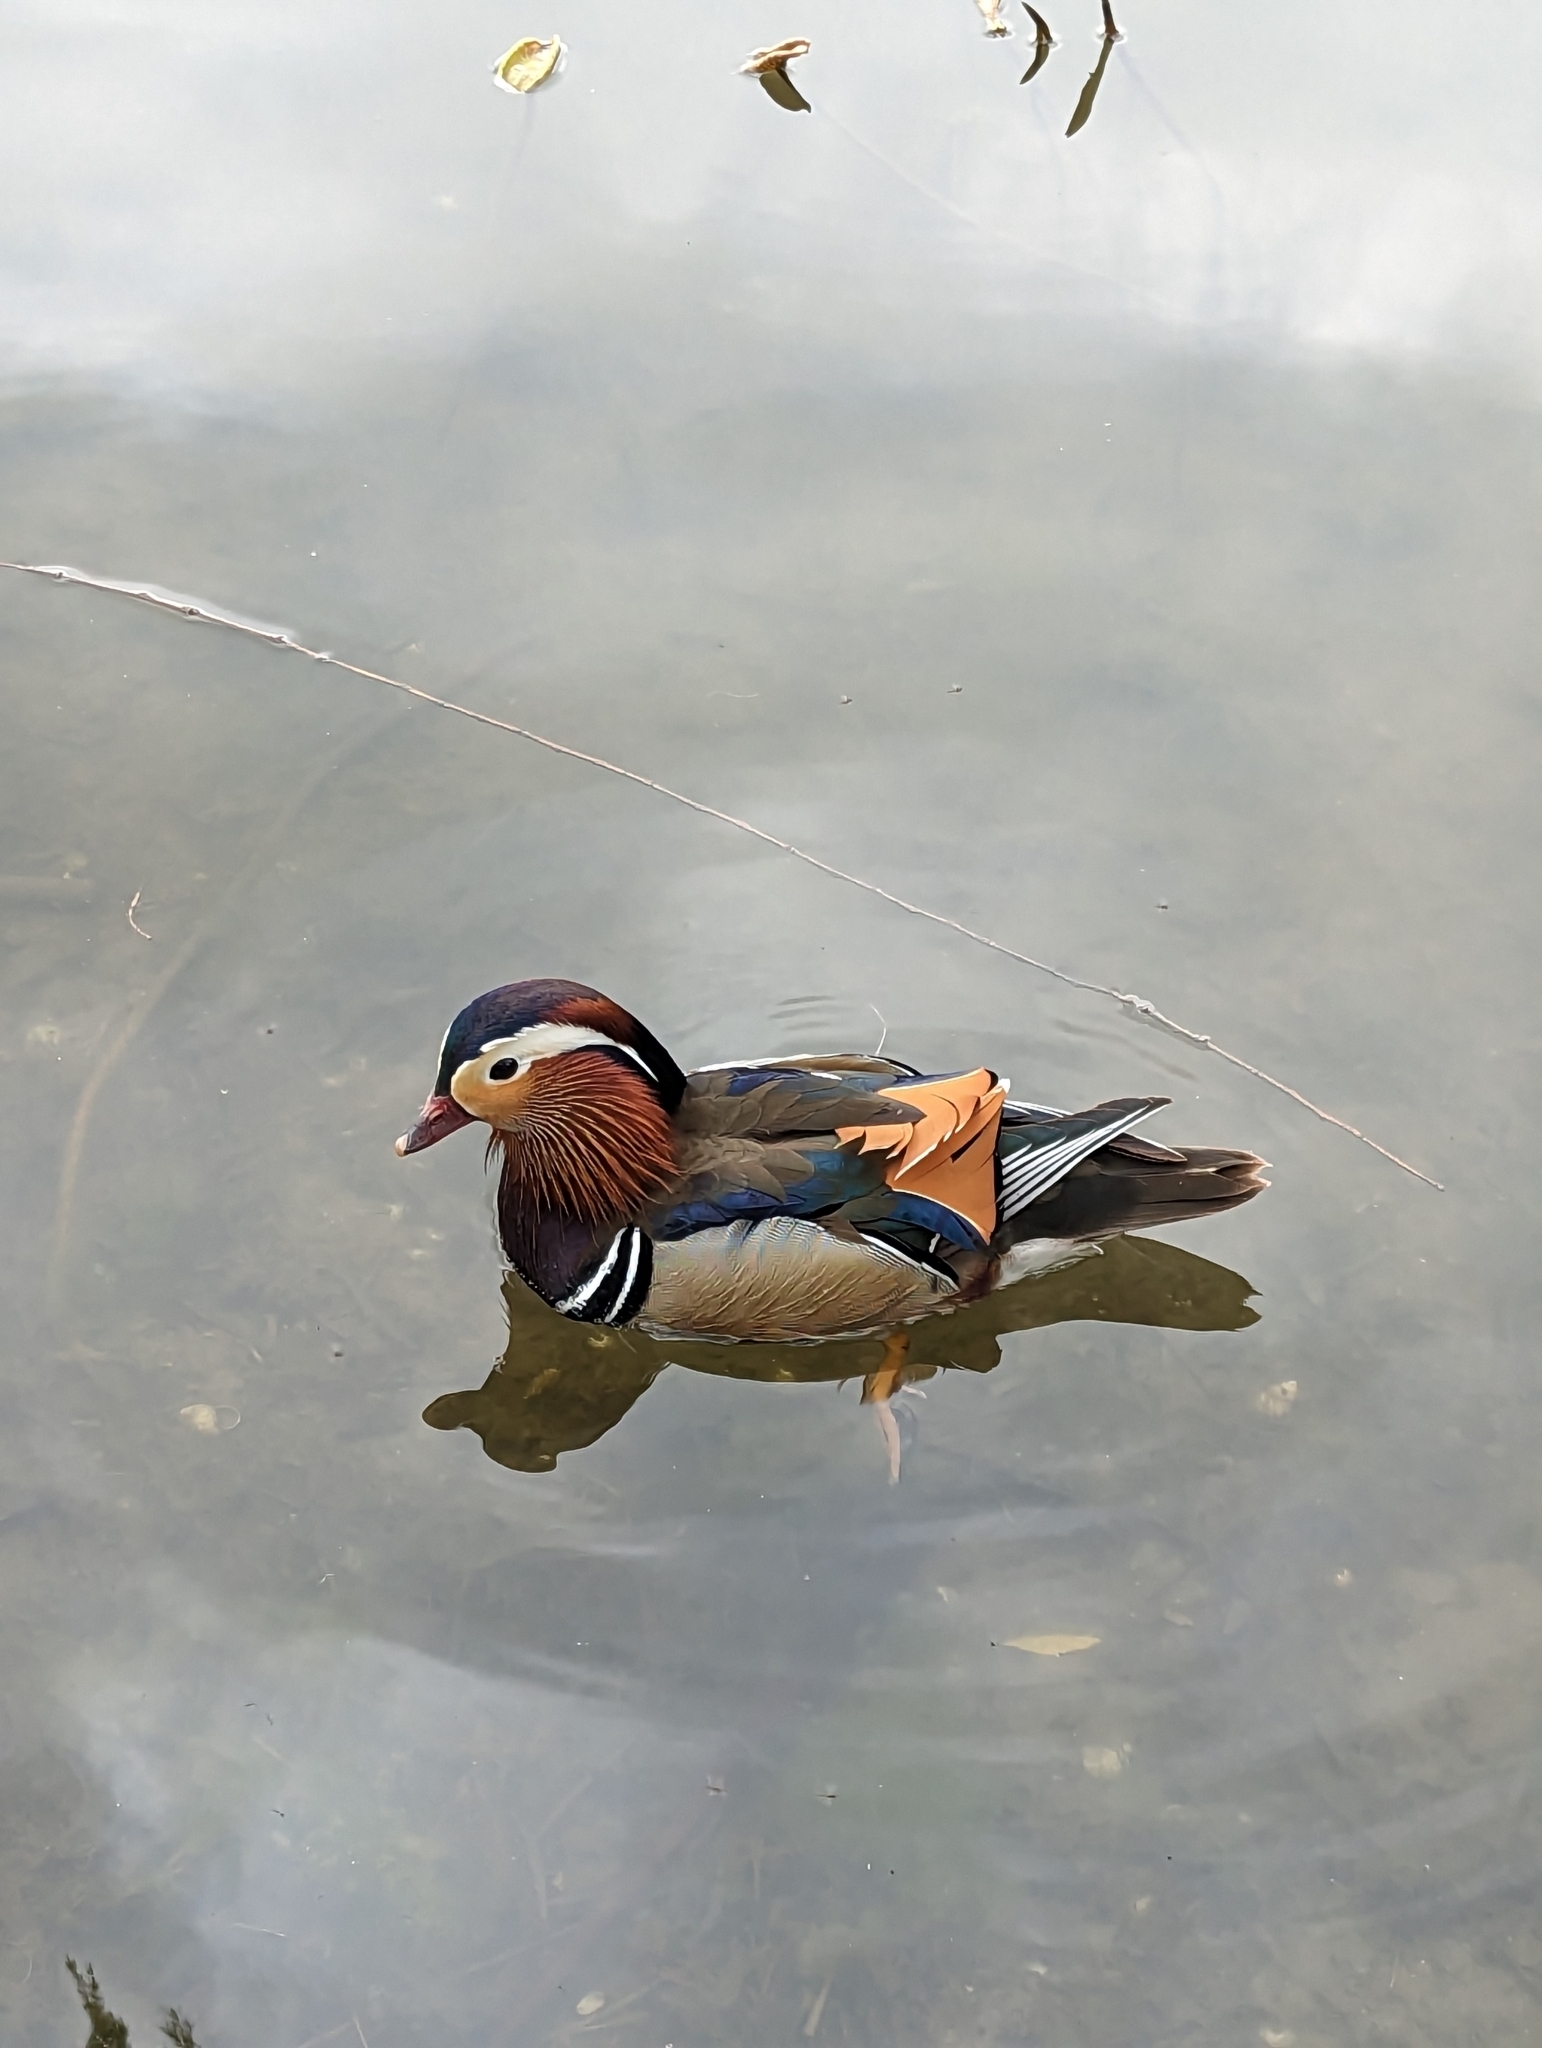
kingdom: Animalia
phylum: Chordata
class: Aves
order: Anseriformes
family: Anatidae
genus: Aix
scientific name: Aix galericulata
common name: Mandarin duck
